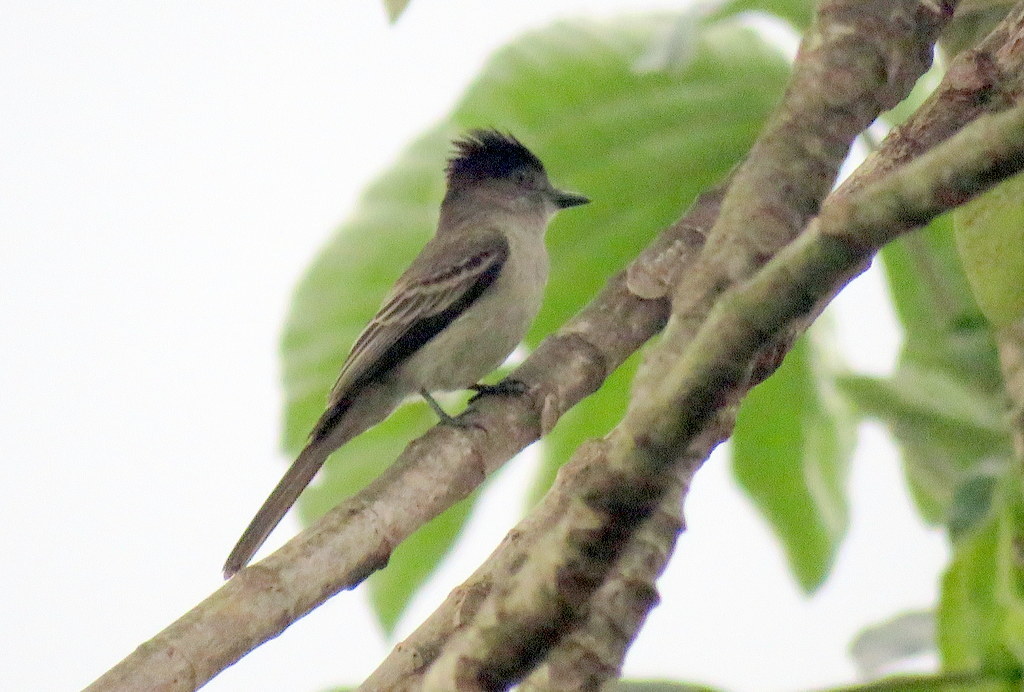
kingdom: Animalia
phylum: Chordata
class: Aves
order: Passeriformes
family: Tyrannidae
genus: Sirystes
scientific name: Sirystes sibilator
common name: Sirystes
